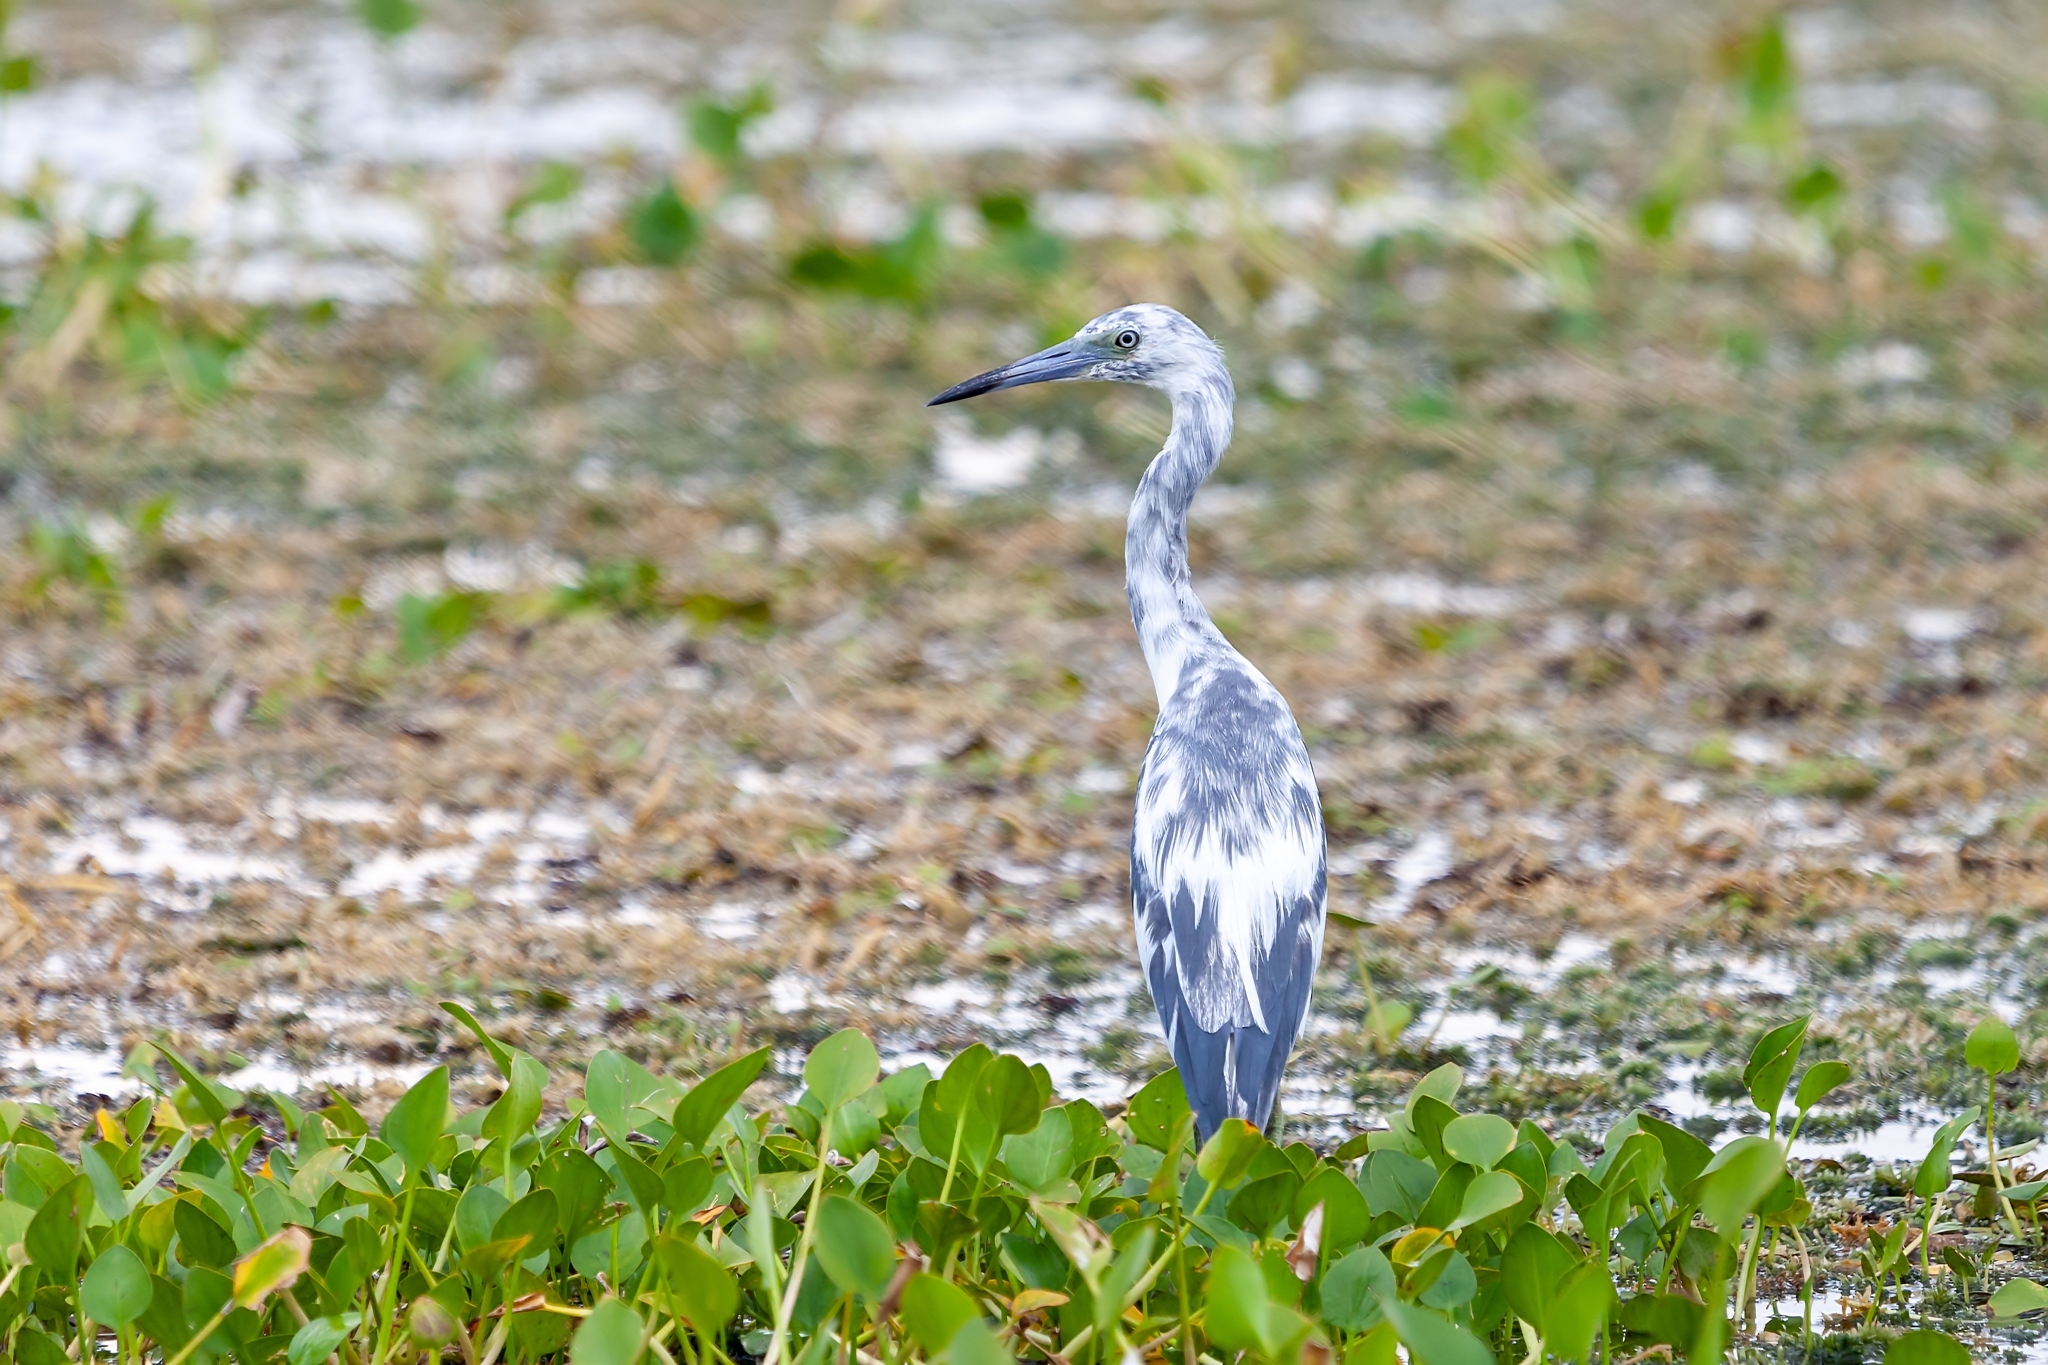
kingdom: Animalia
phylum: Chordata
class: Aves
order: Pelecaniformes
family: Ardeidae
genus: Egretta
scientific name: Egretta caerulea
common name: Little blue heron
